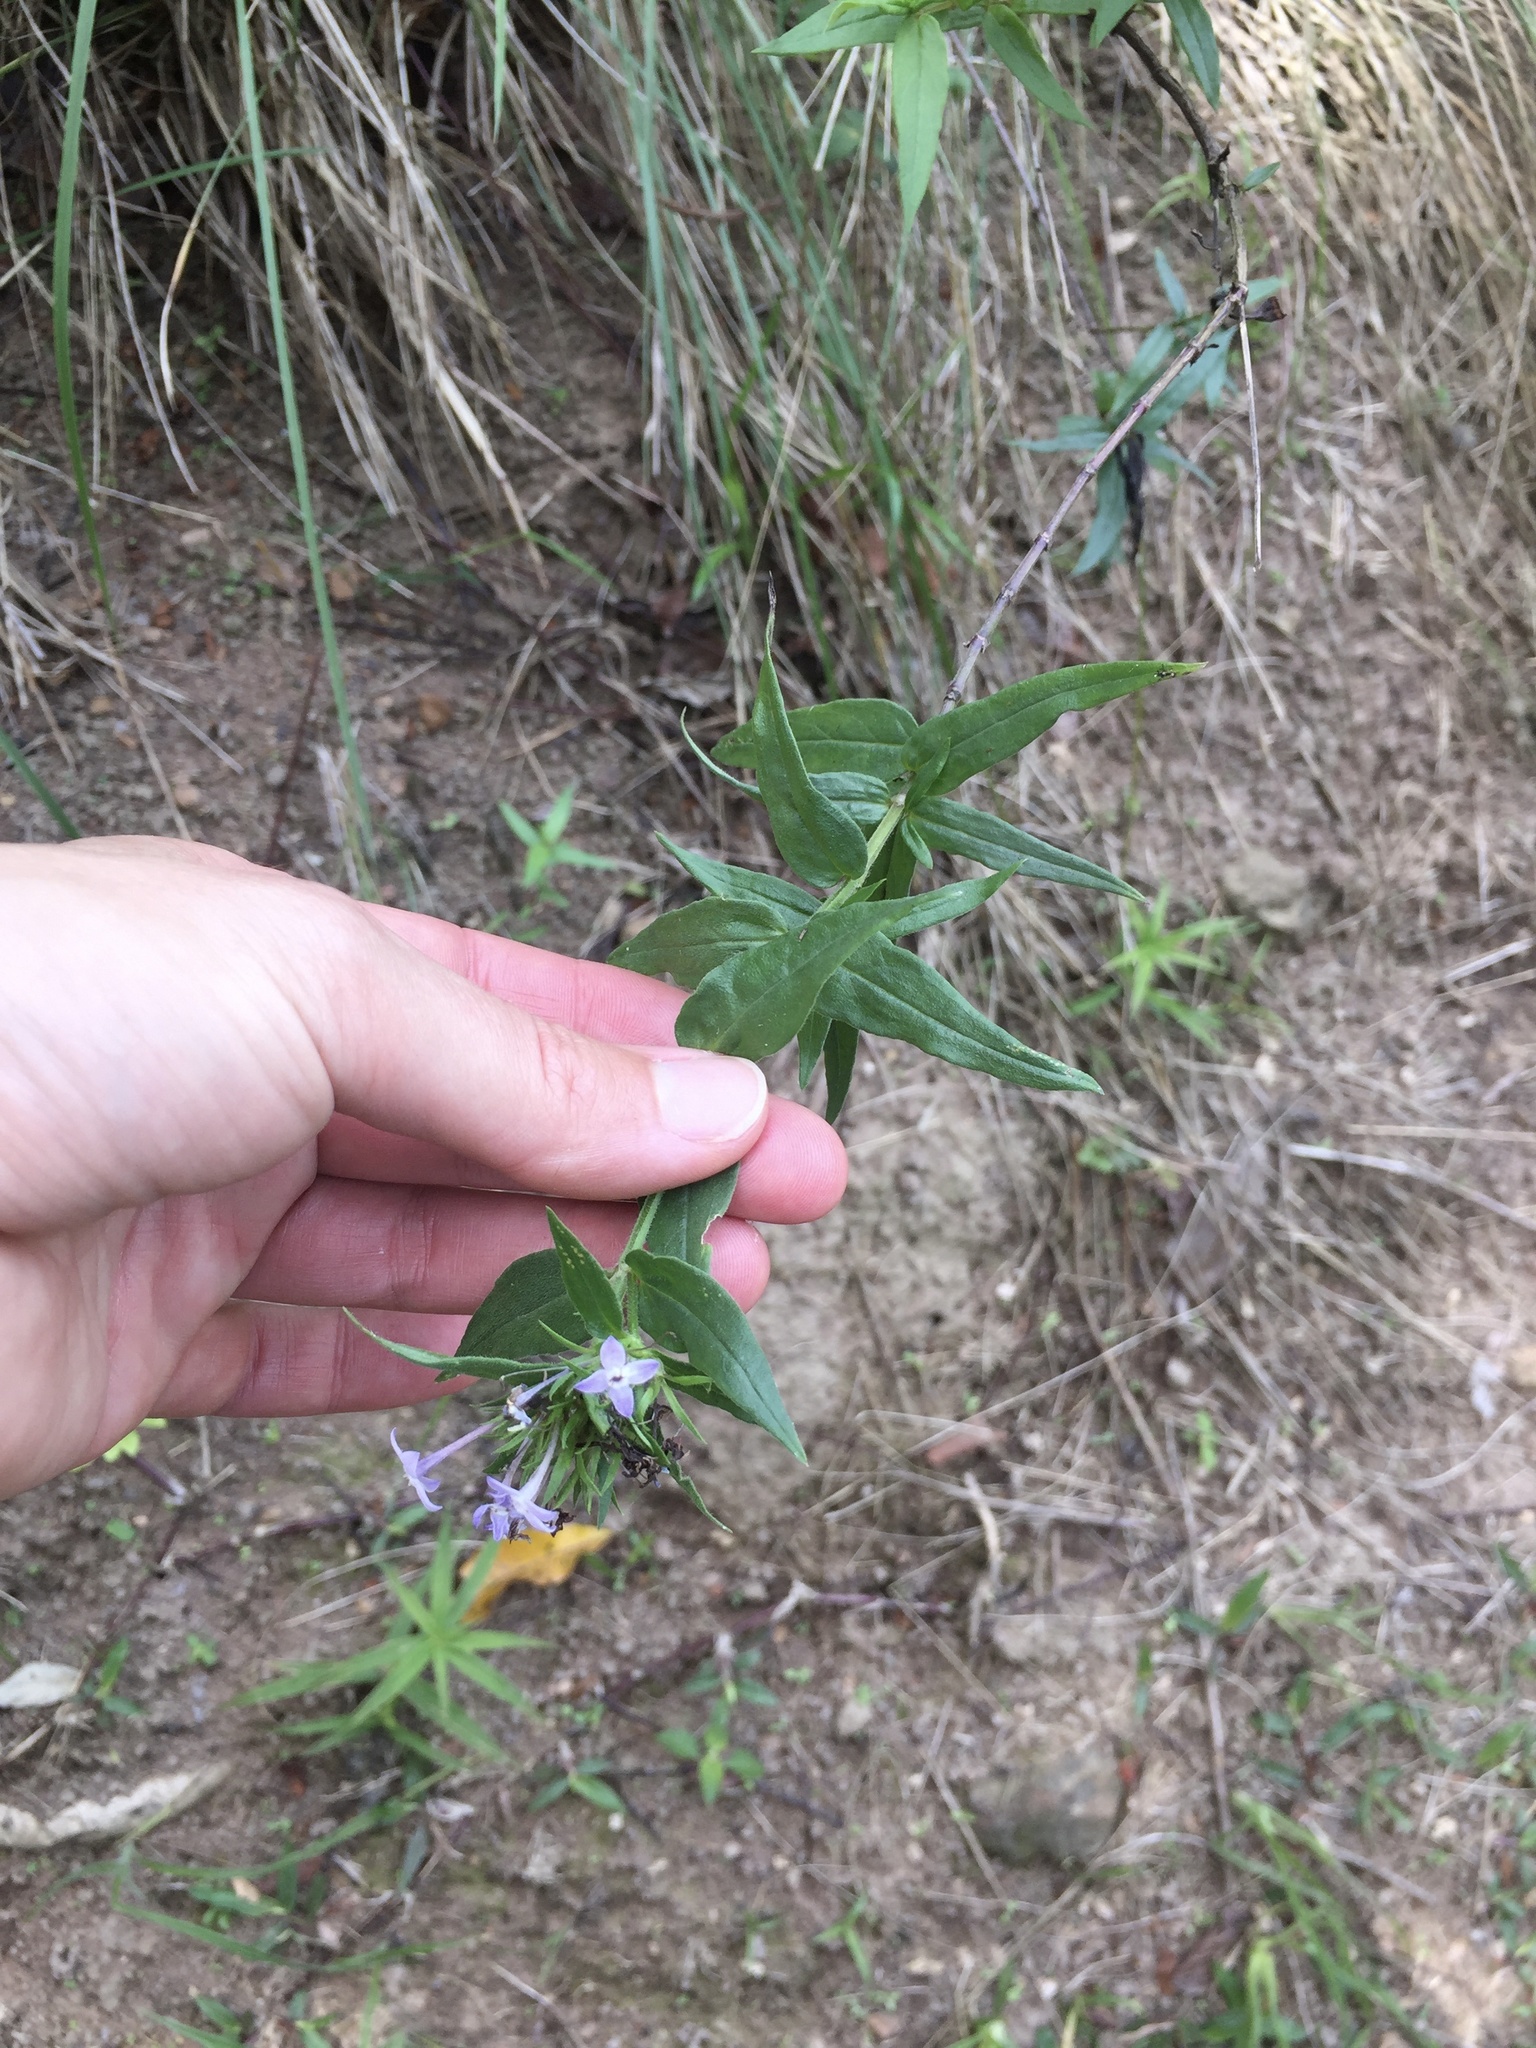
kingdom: Plantae
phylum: Tracheophyta
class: Magnoliopsida
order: Gentianales
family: Rubiaceae
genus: Conostomium
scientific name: Conostomium natalense
